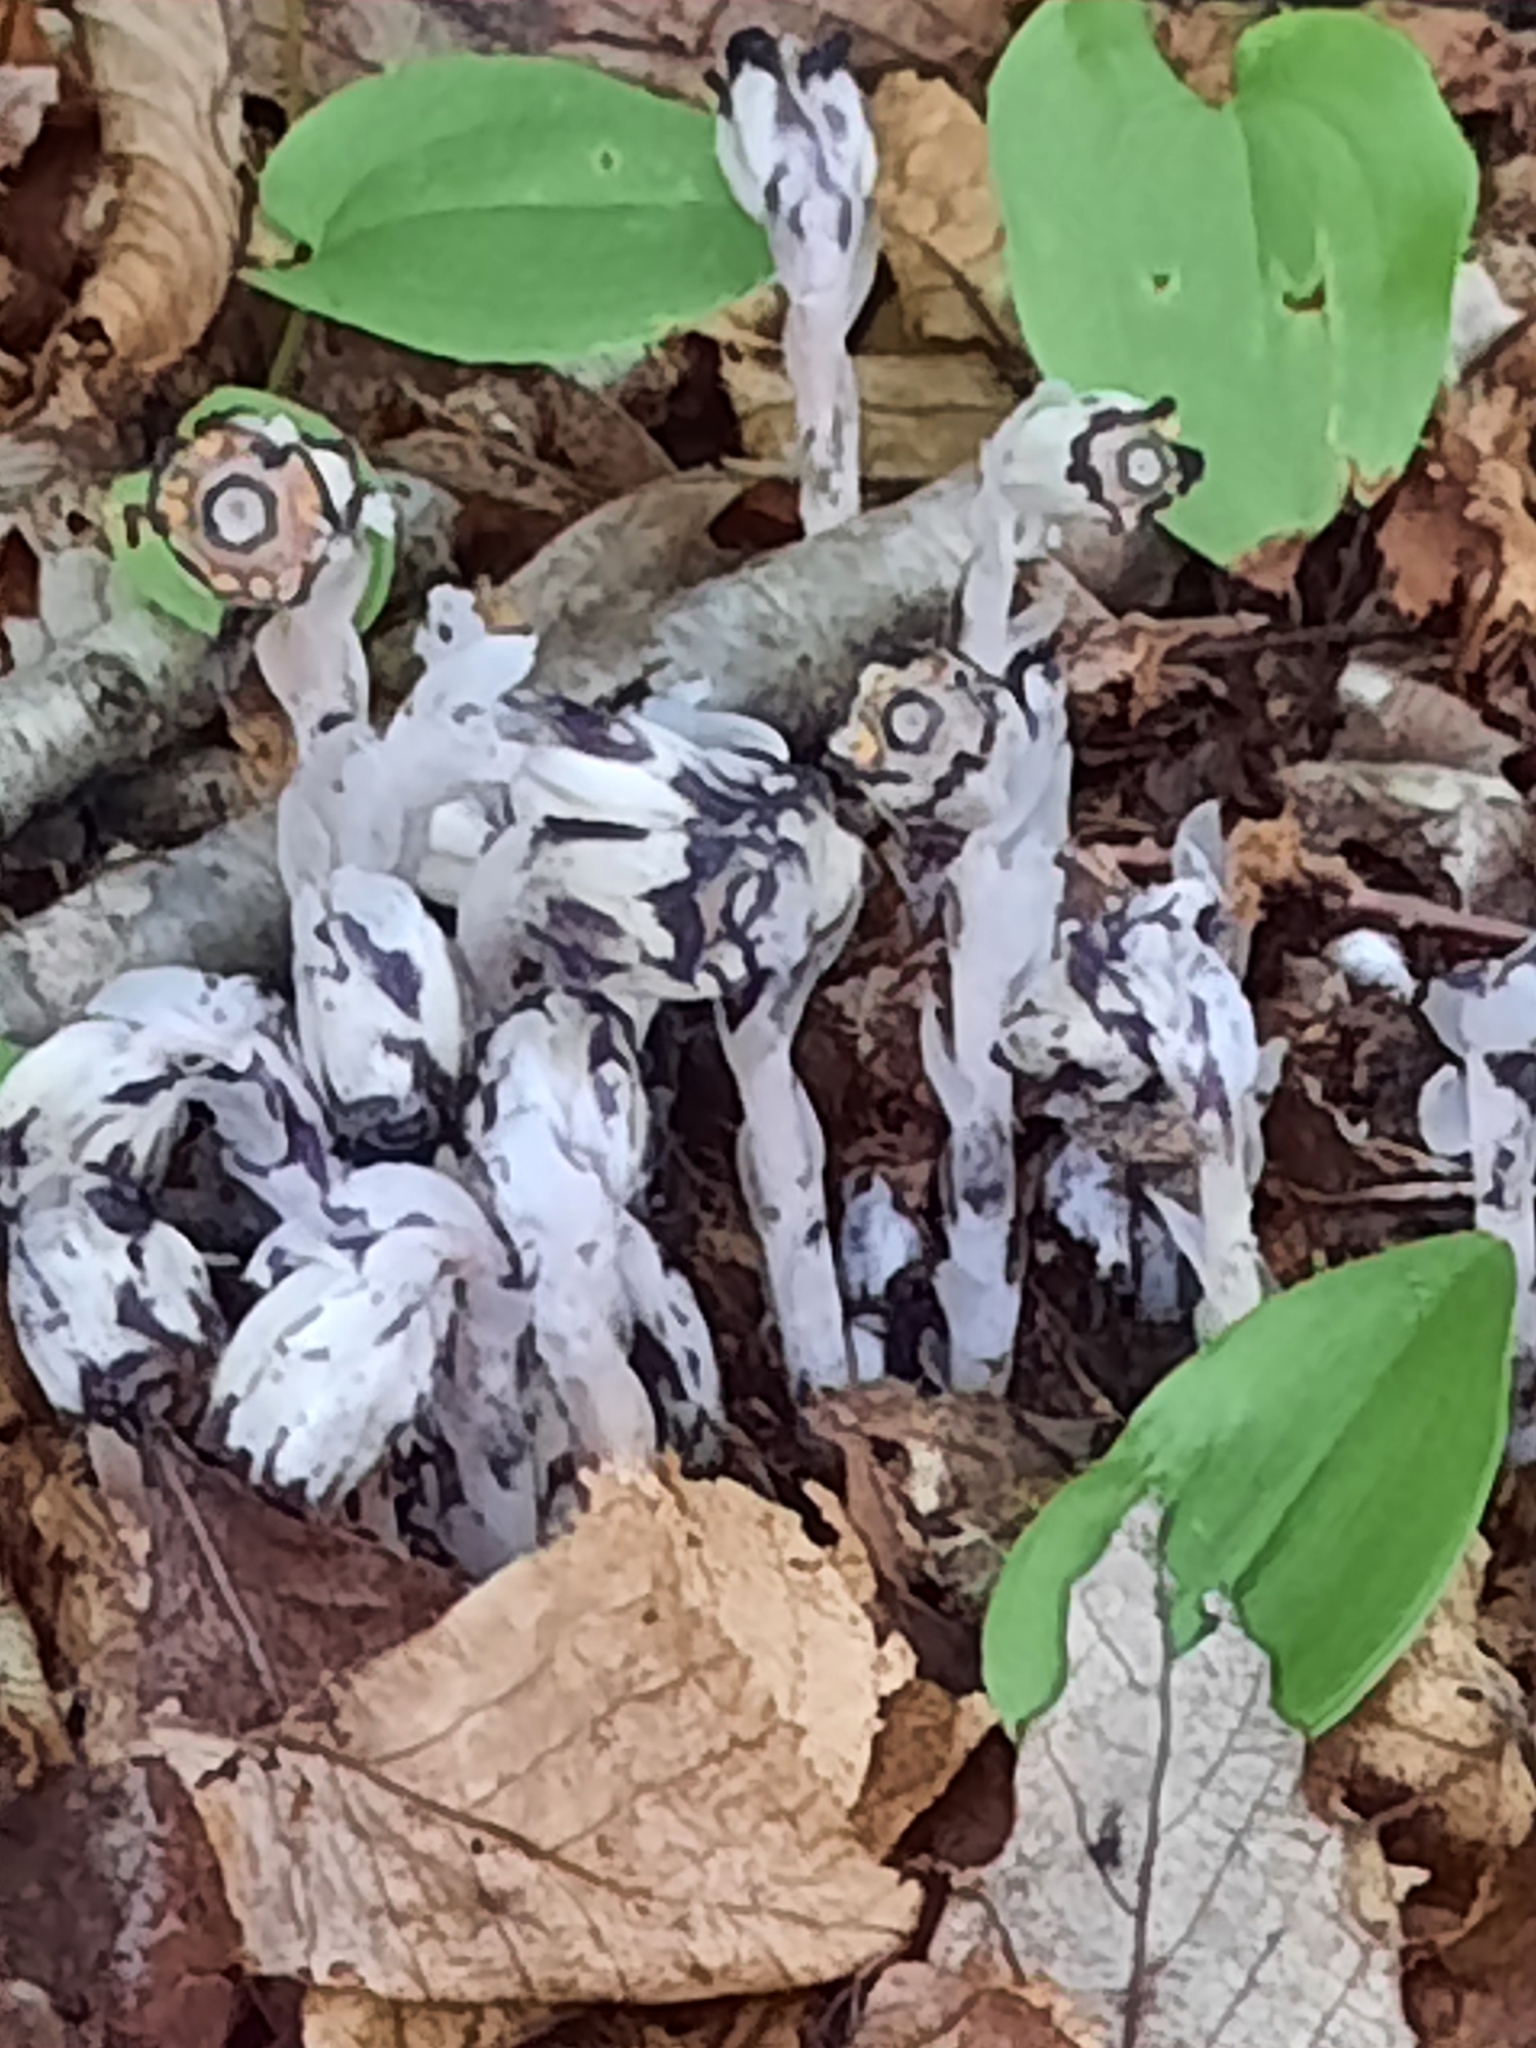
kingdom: Plantae
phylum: Tracheophyta
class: Magnoliopsida
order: Ericales
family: Ericaceae
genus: Monotropa
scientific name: Monotropa uniflora
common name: Convulsion root
